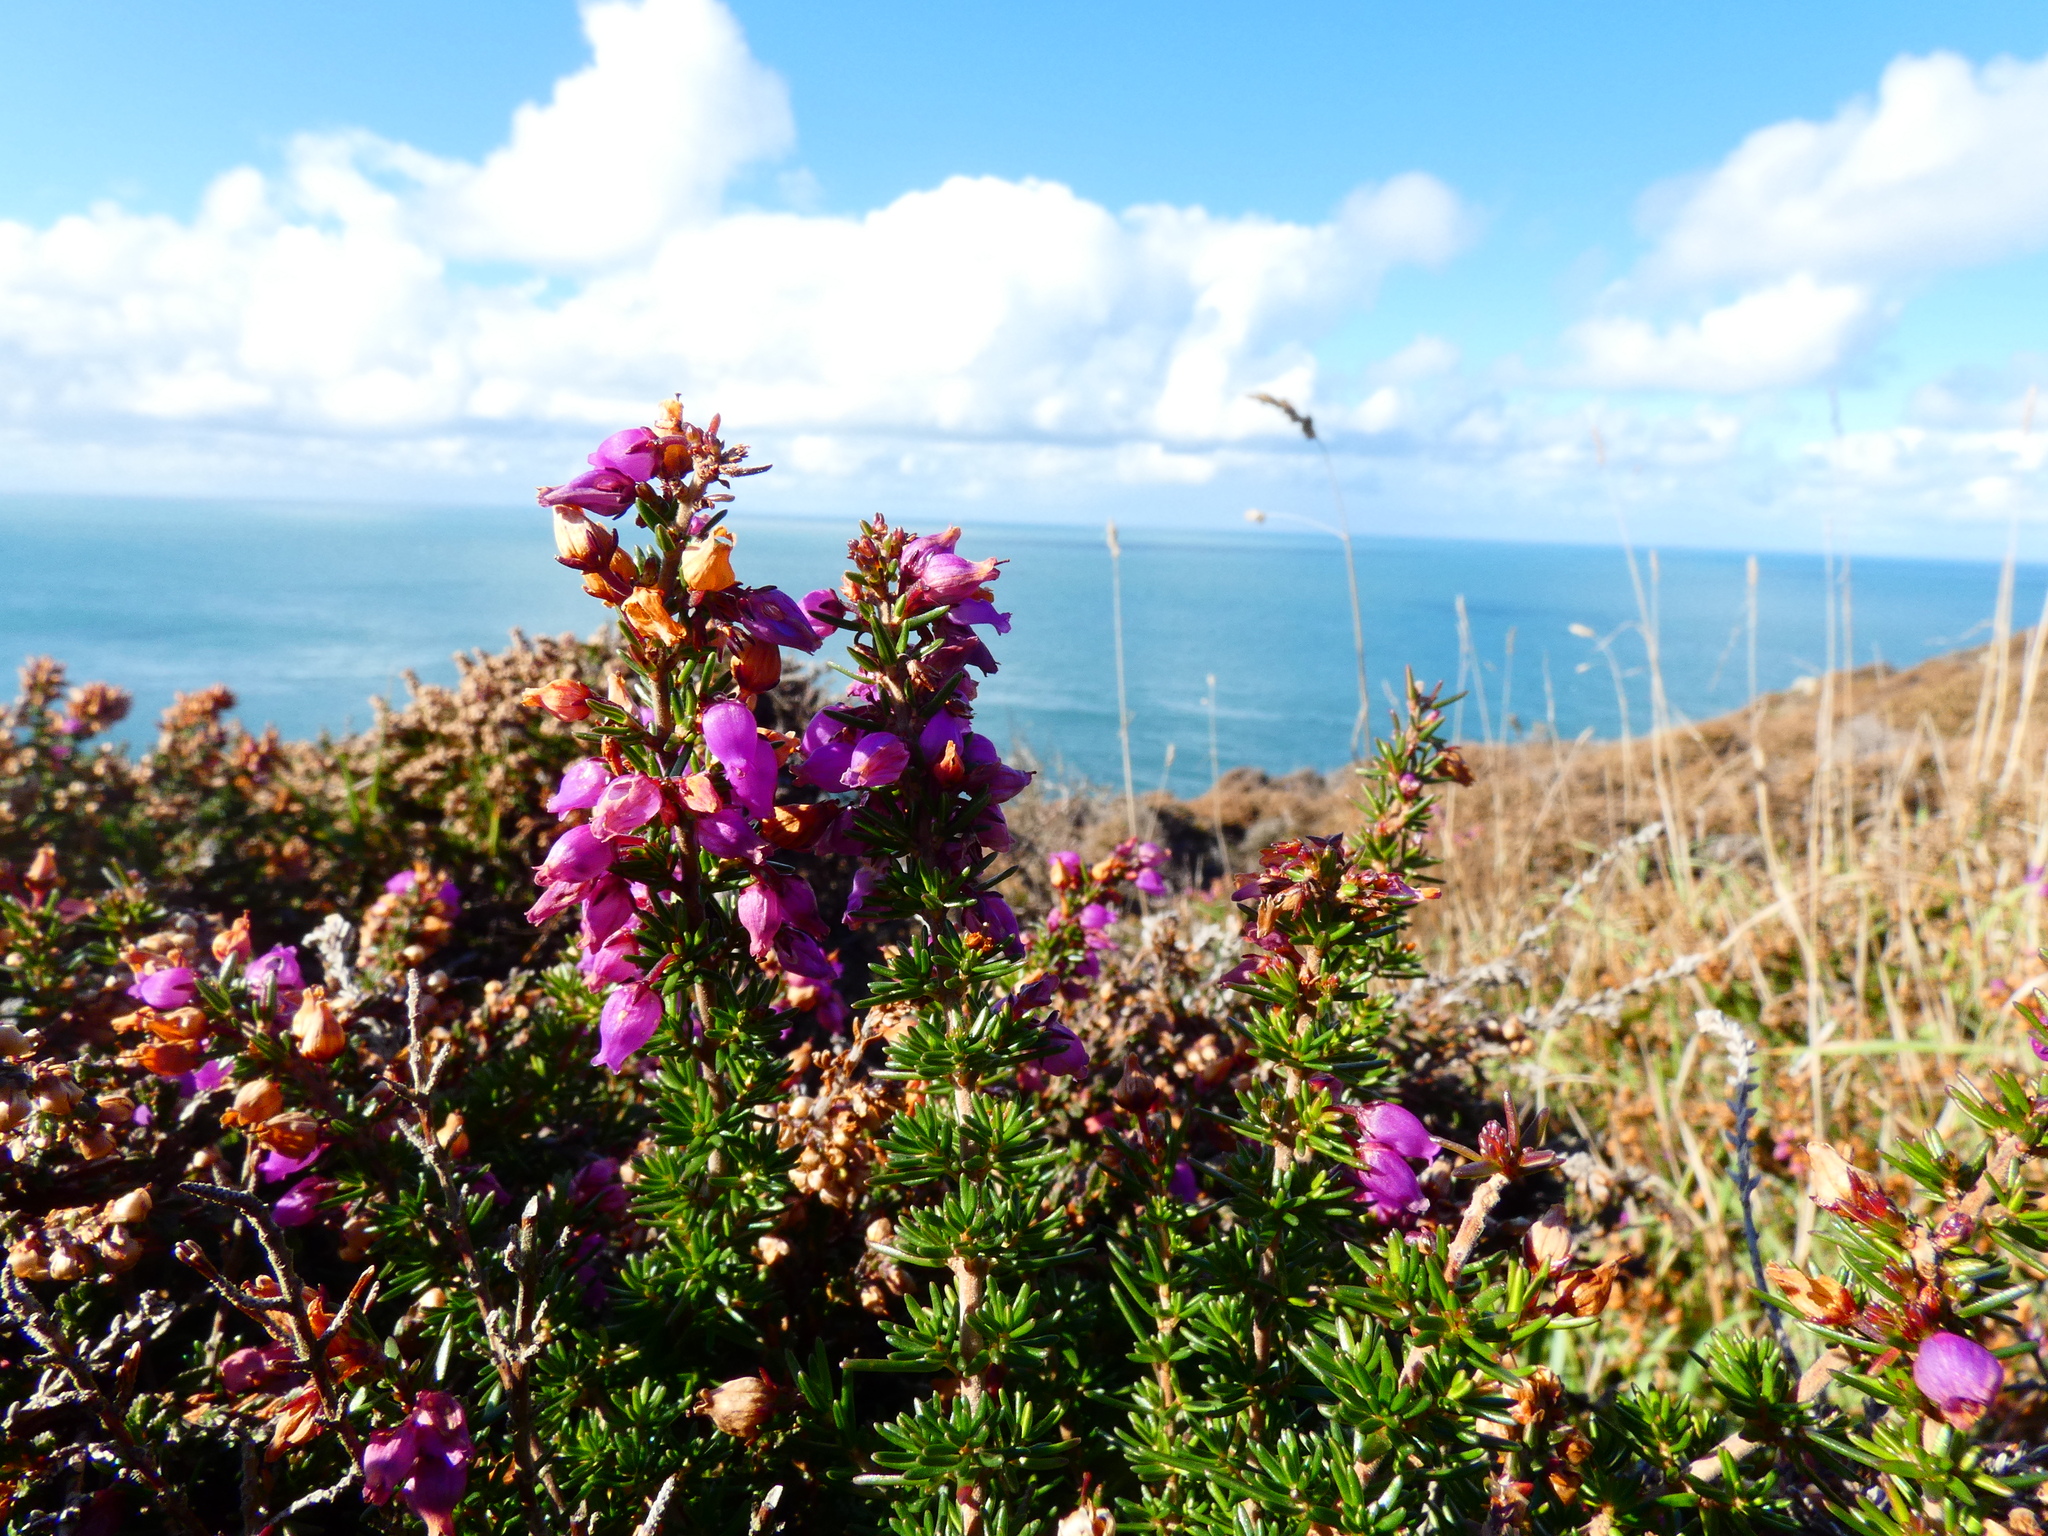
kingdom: Plantae
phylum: Tracheophyta
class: Magnoliopsida
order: Ericales
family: Ericaceae
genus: Erica
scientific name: Erica cinerea
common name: Bell heather
